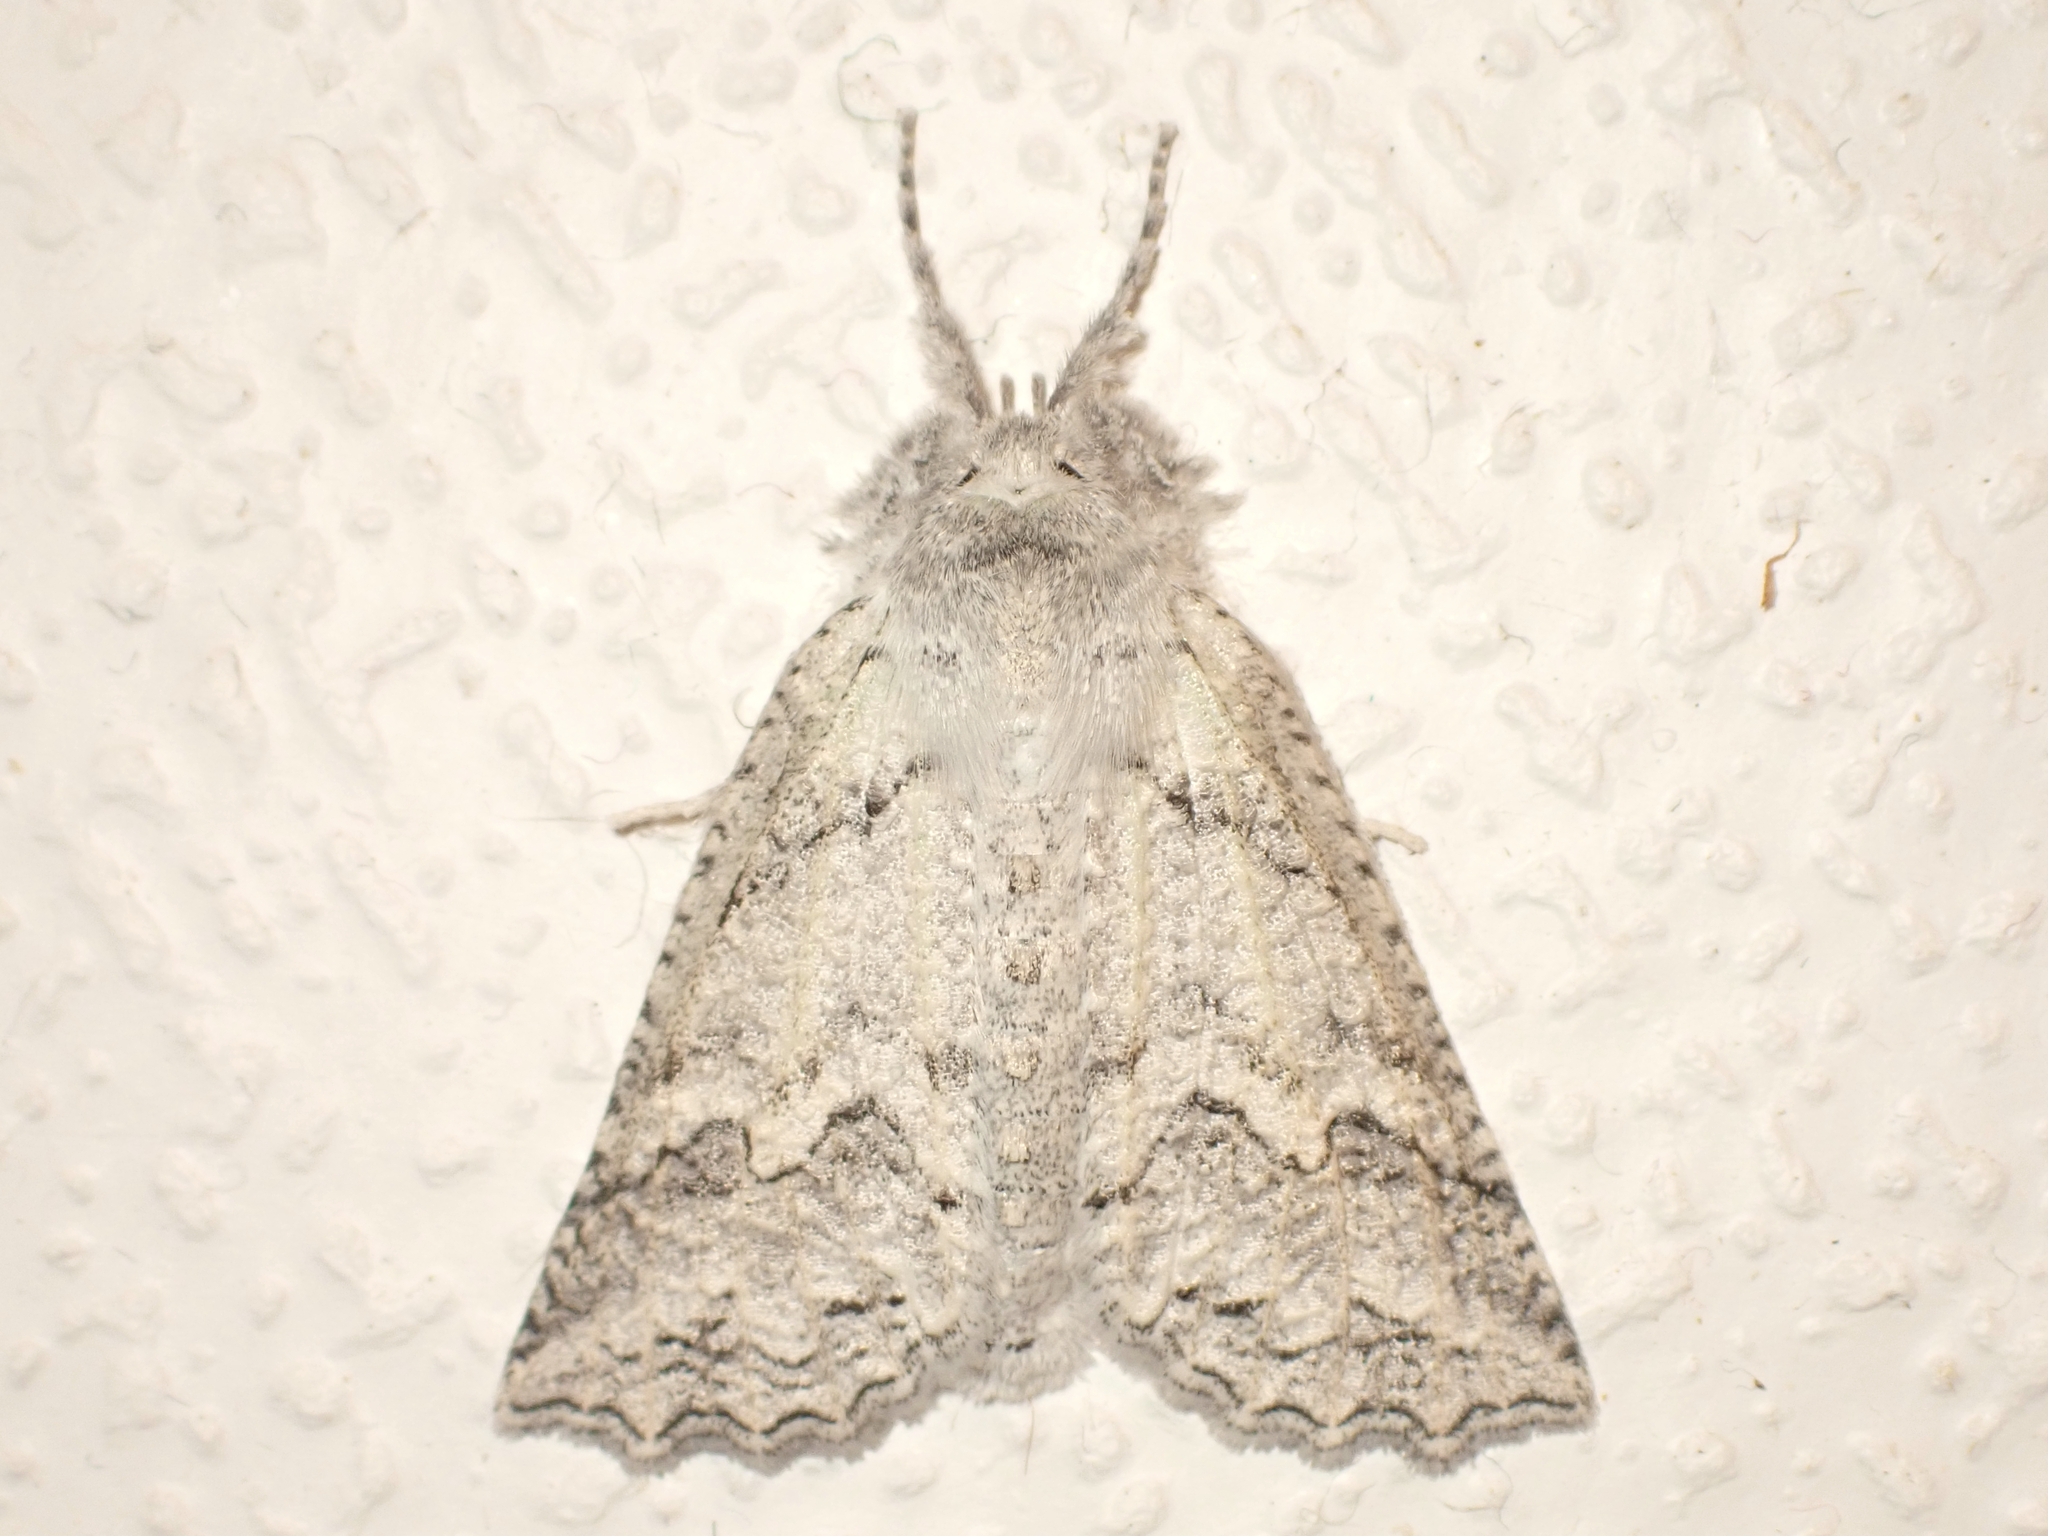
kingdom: Animalia
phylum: Arthropoda
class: Insecta
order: Lepidoptera
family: Geometridae
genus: Declana
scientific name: Declana niveata
